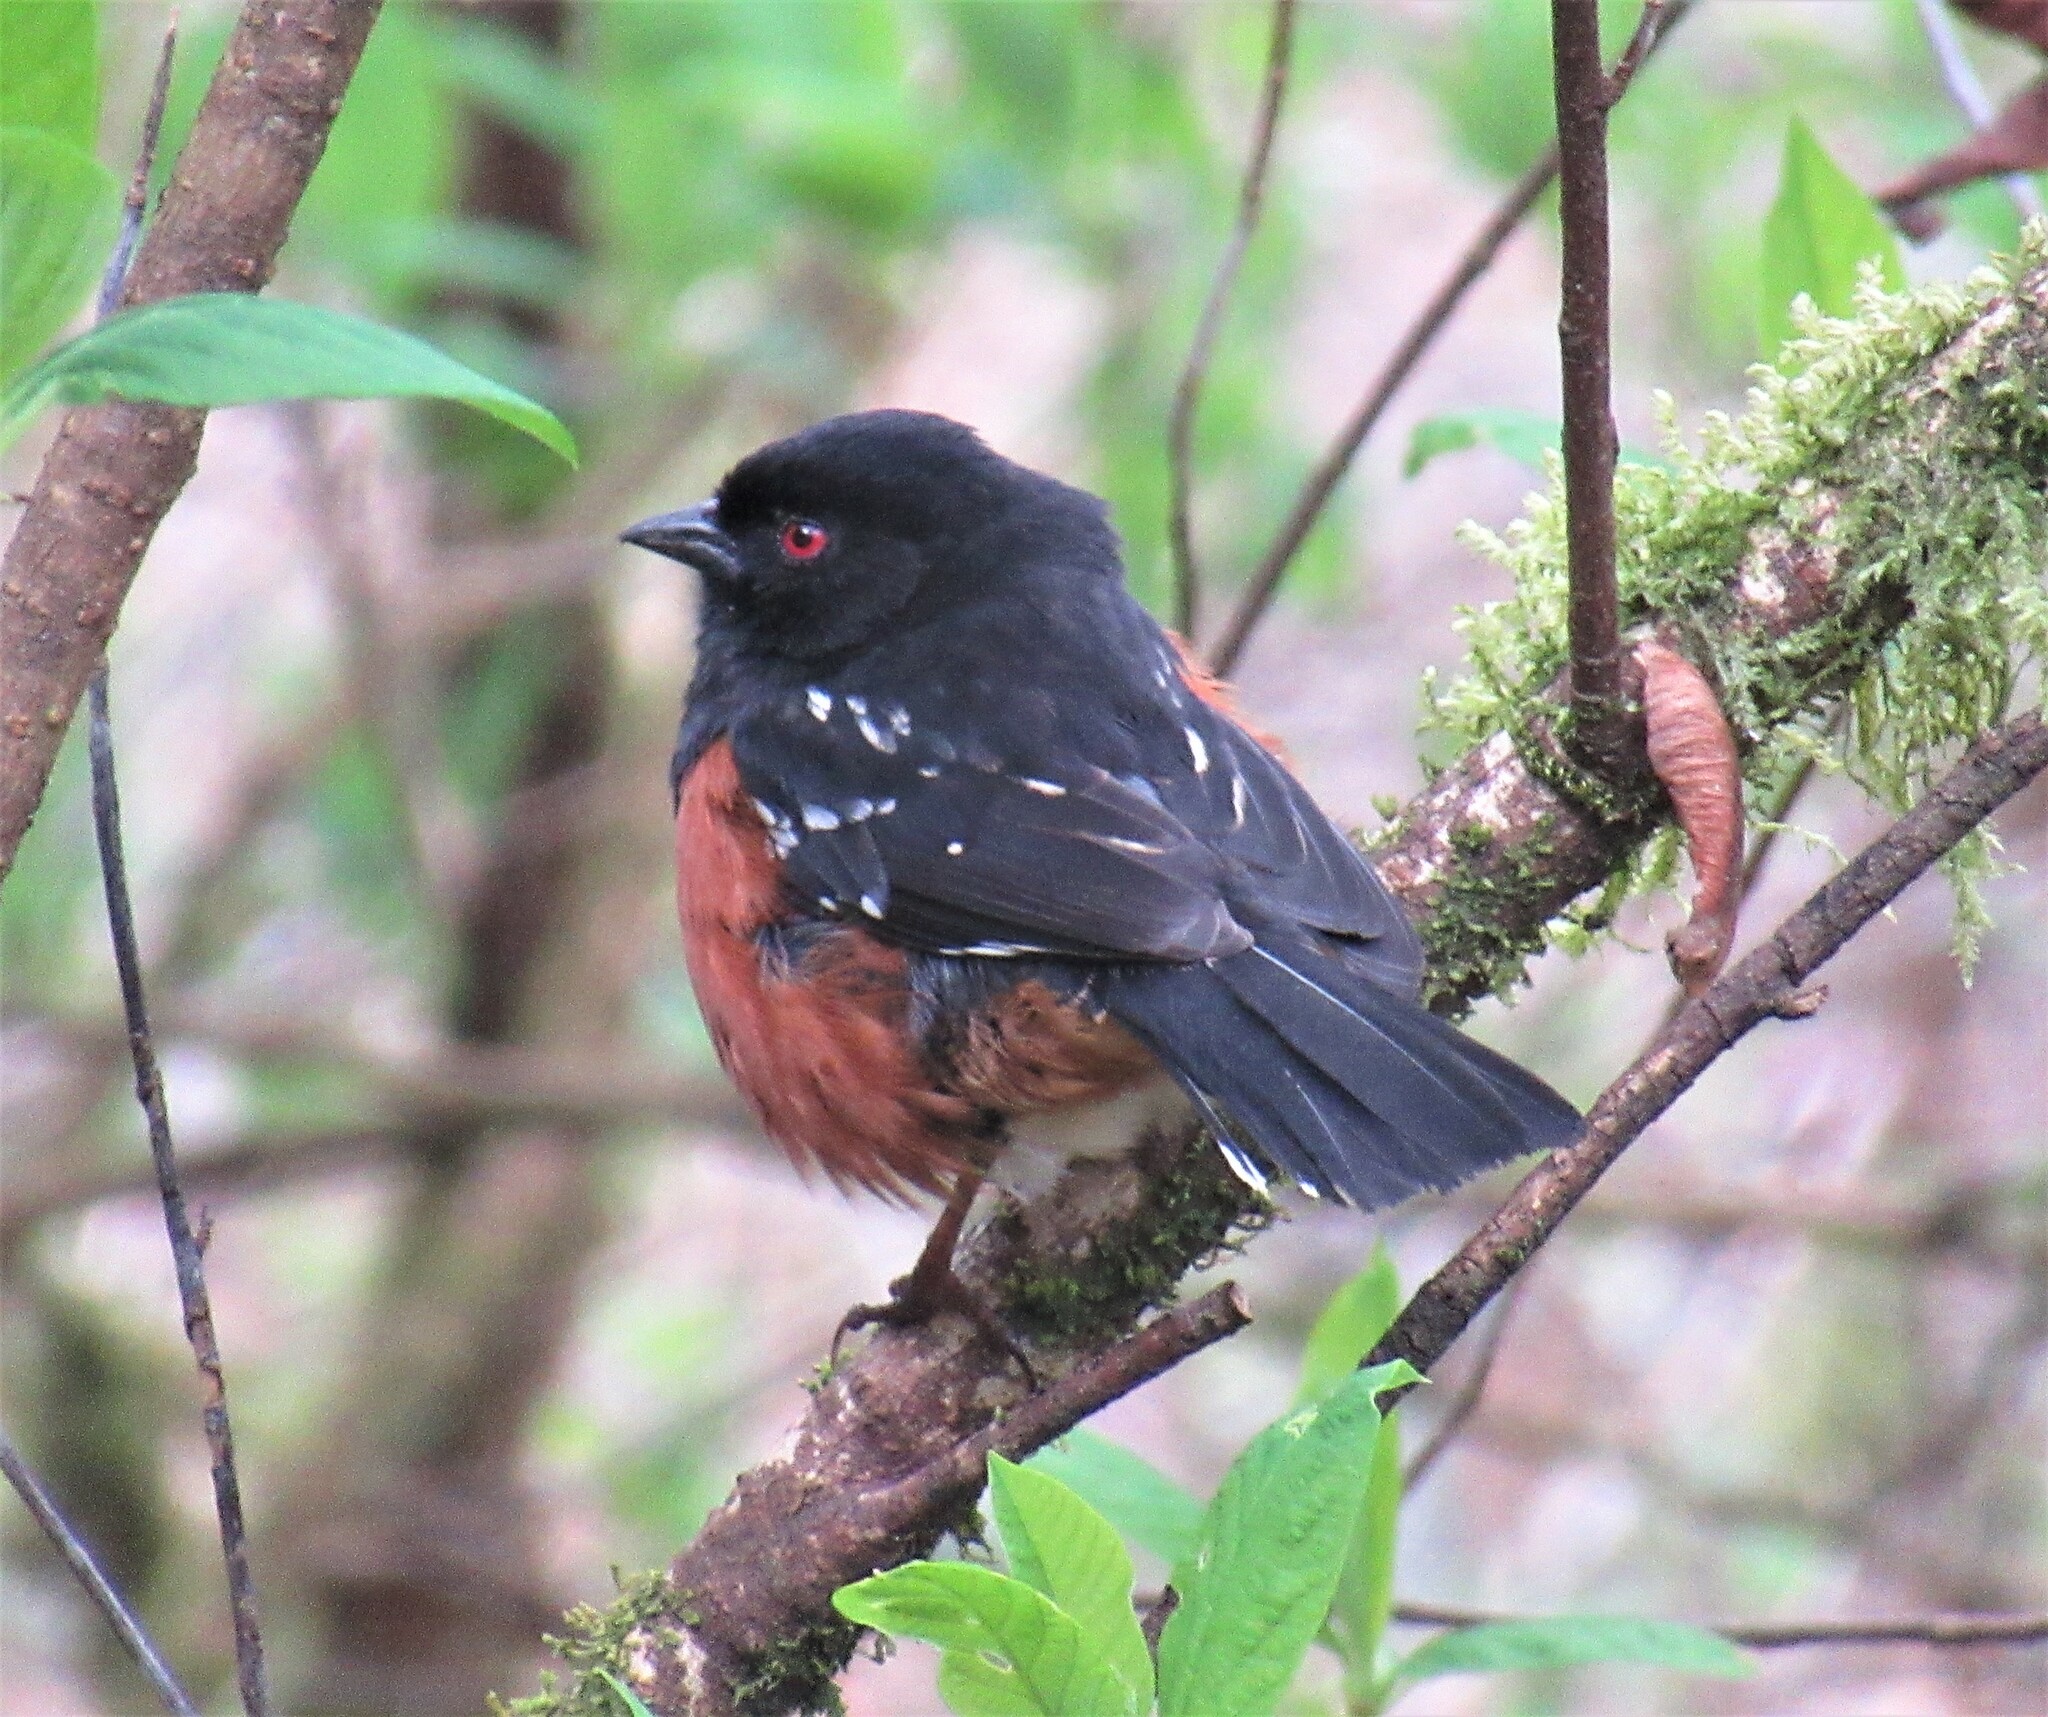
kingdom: Animalia
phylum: Chordata
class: Aves
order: Passeriformes
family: Passerellidae
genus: Pipilo
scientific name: Pipilo maculatus
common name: Spotted towhee
